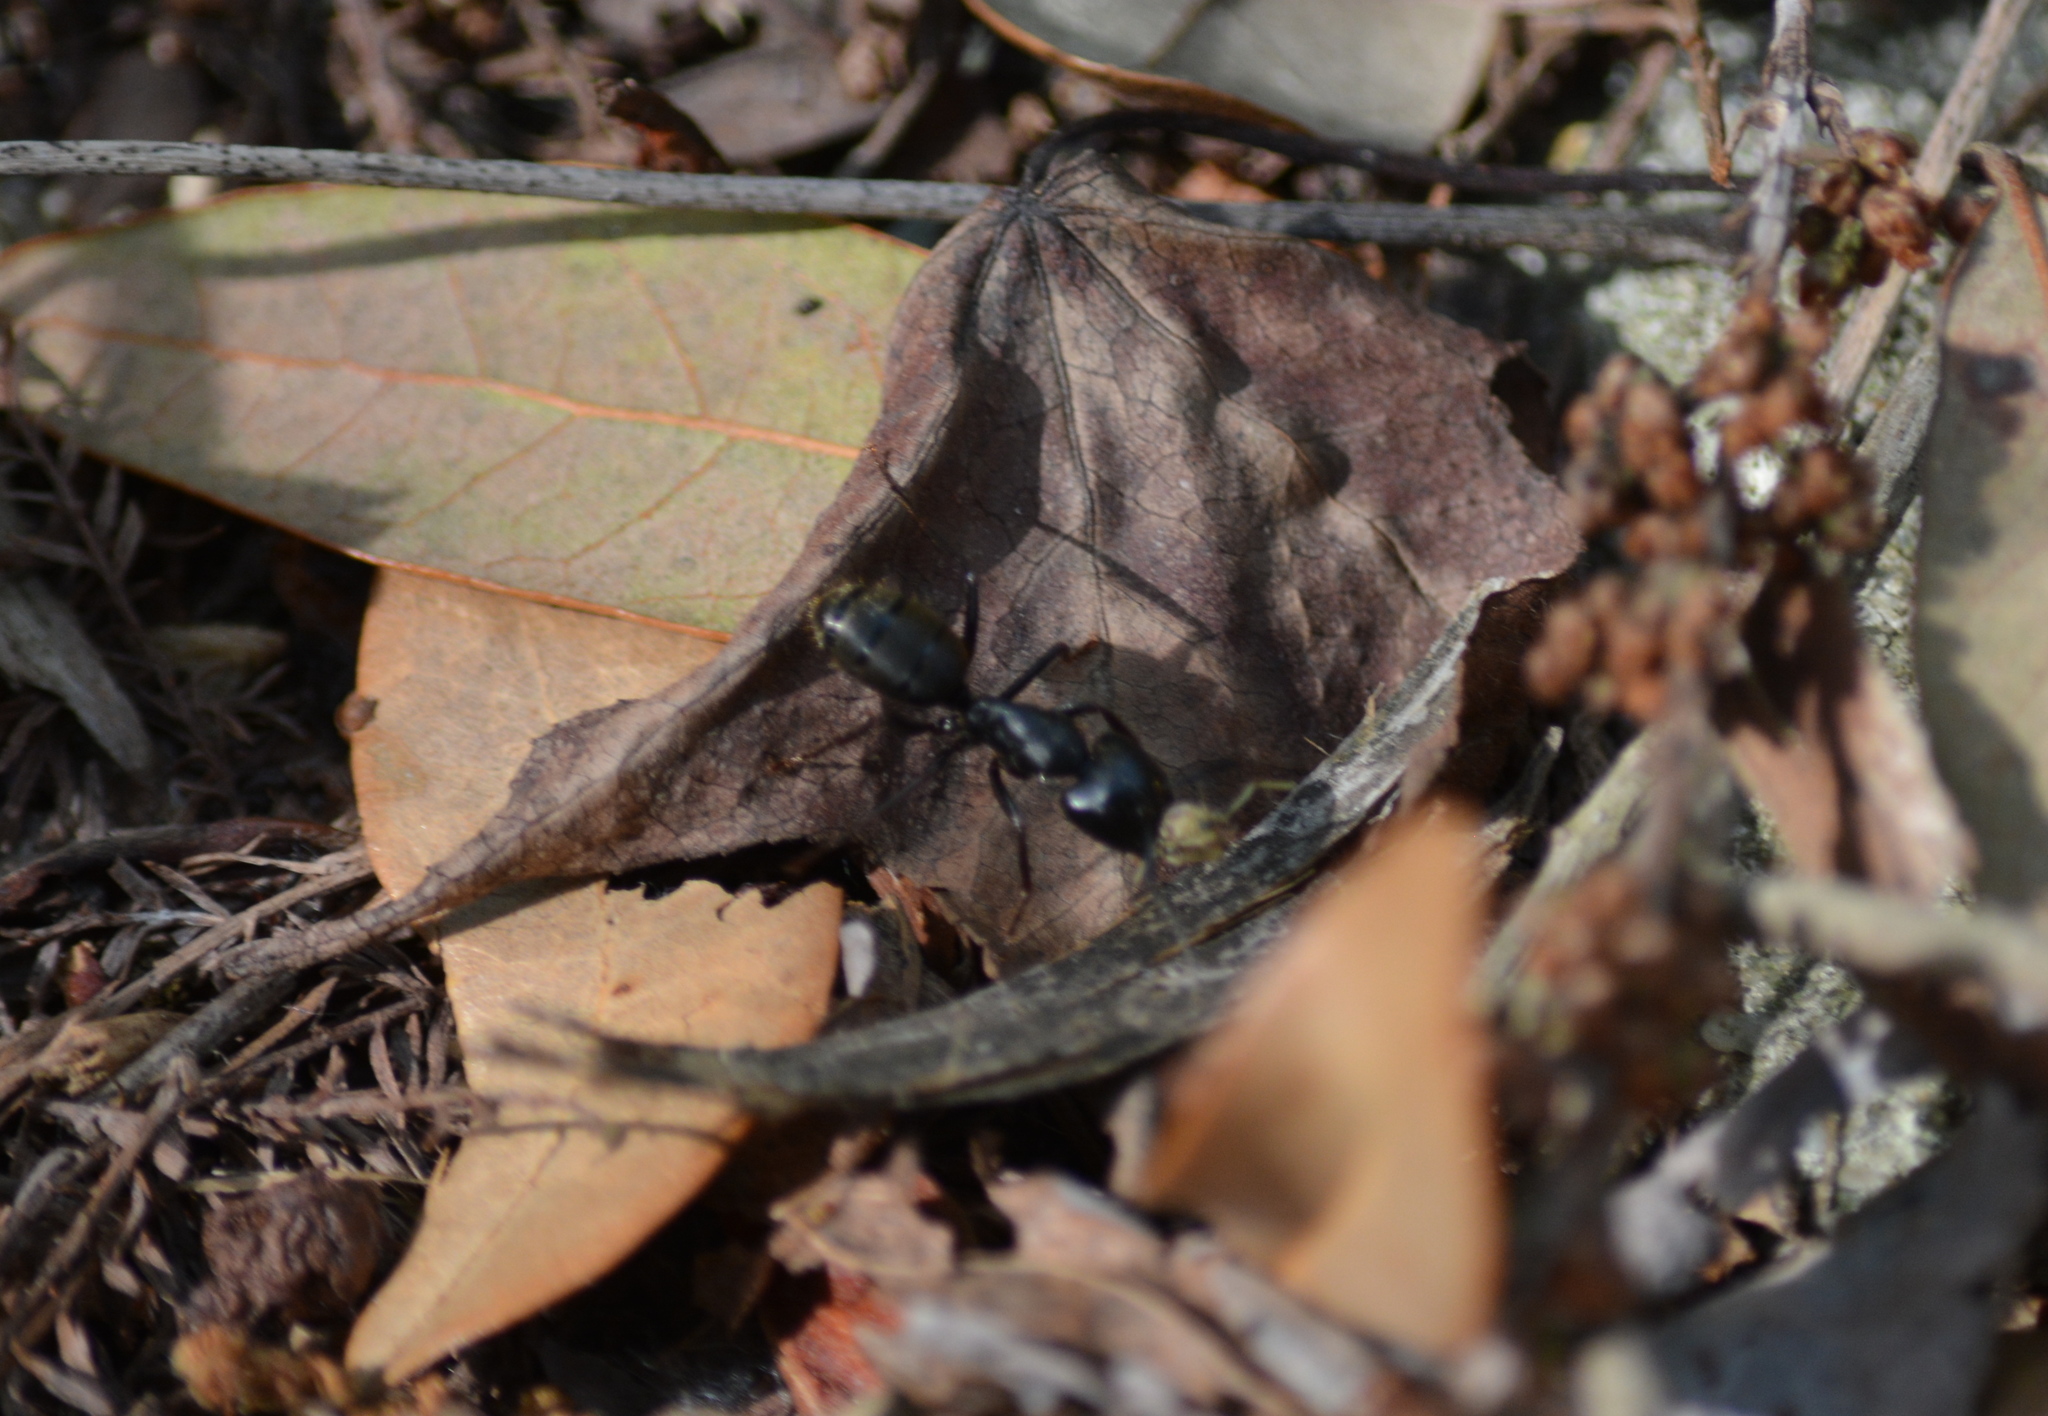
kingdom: Animalia
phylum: Arthropoda
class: Insecta
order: Hymenoptera
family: Formicidae
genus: Camponotus
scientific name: Camponotus pennsylvanicus
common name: Black carpenter ant
